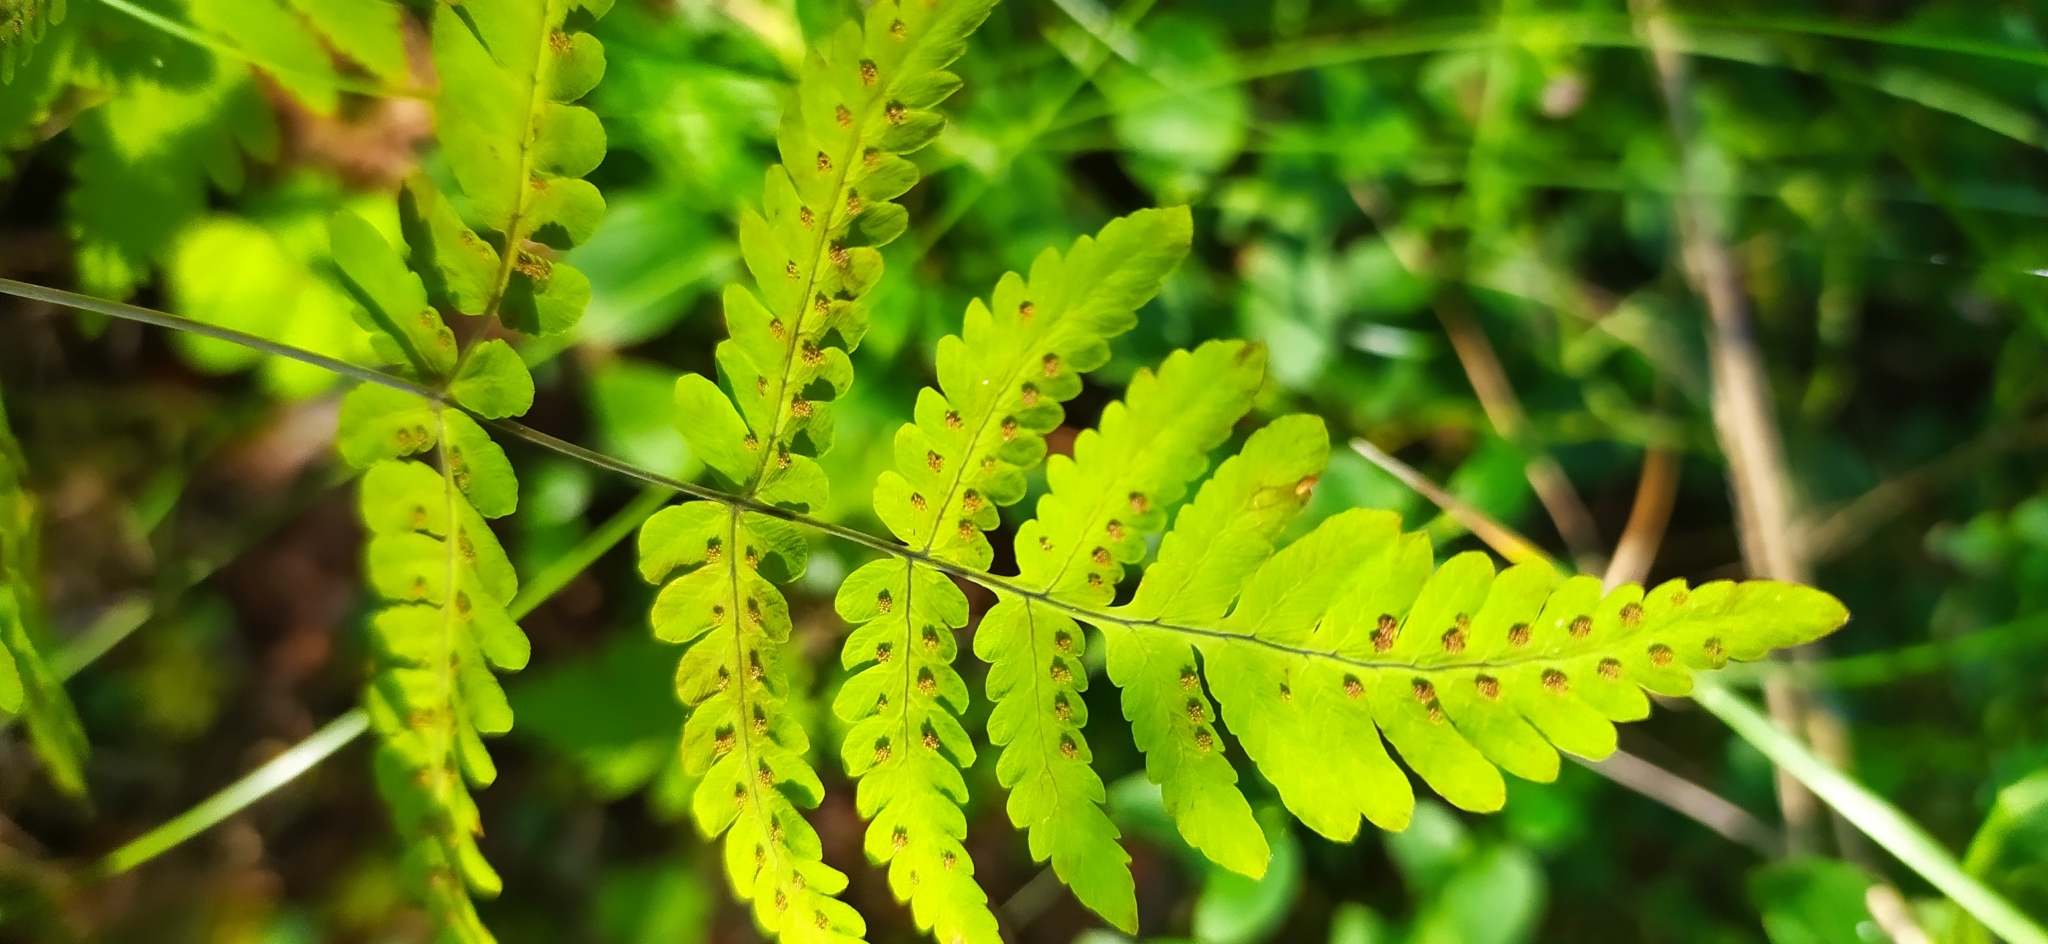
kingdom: Plantae
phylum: Tracheophyta
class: Polypodiopsida
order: Polypodiales
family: Cystopteridaceae
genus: Gymnocarpium
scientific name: Gymnocarpium dryopteris
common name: Oak fern
